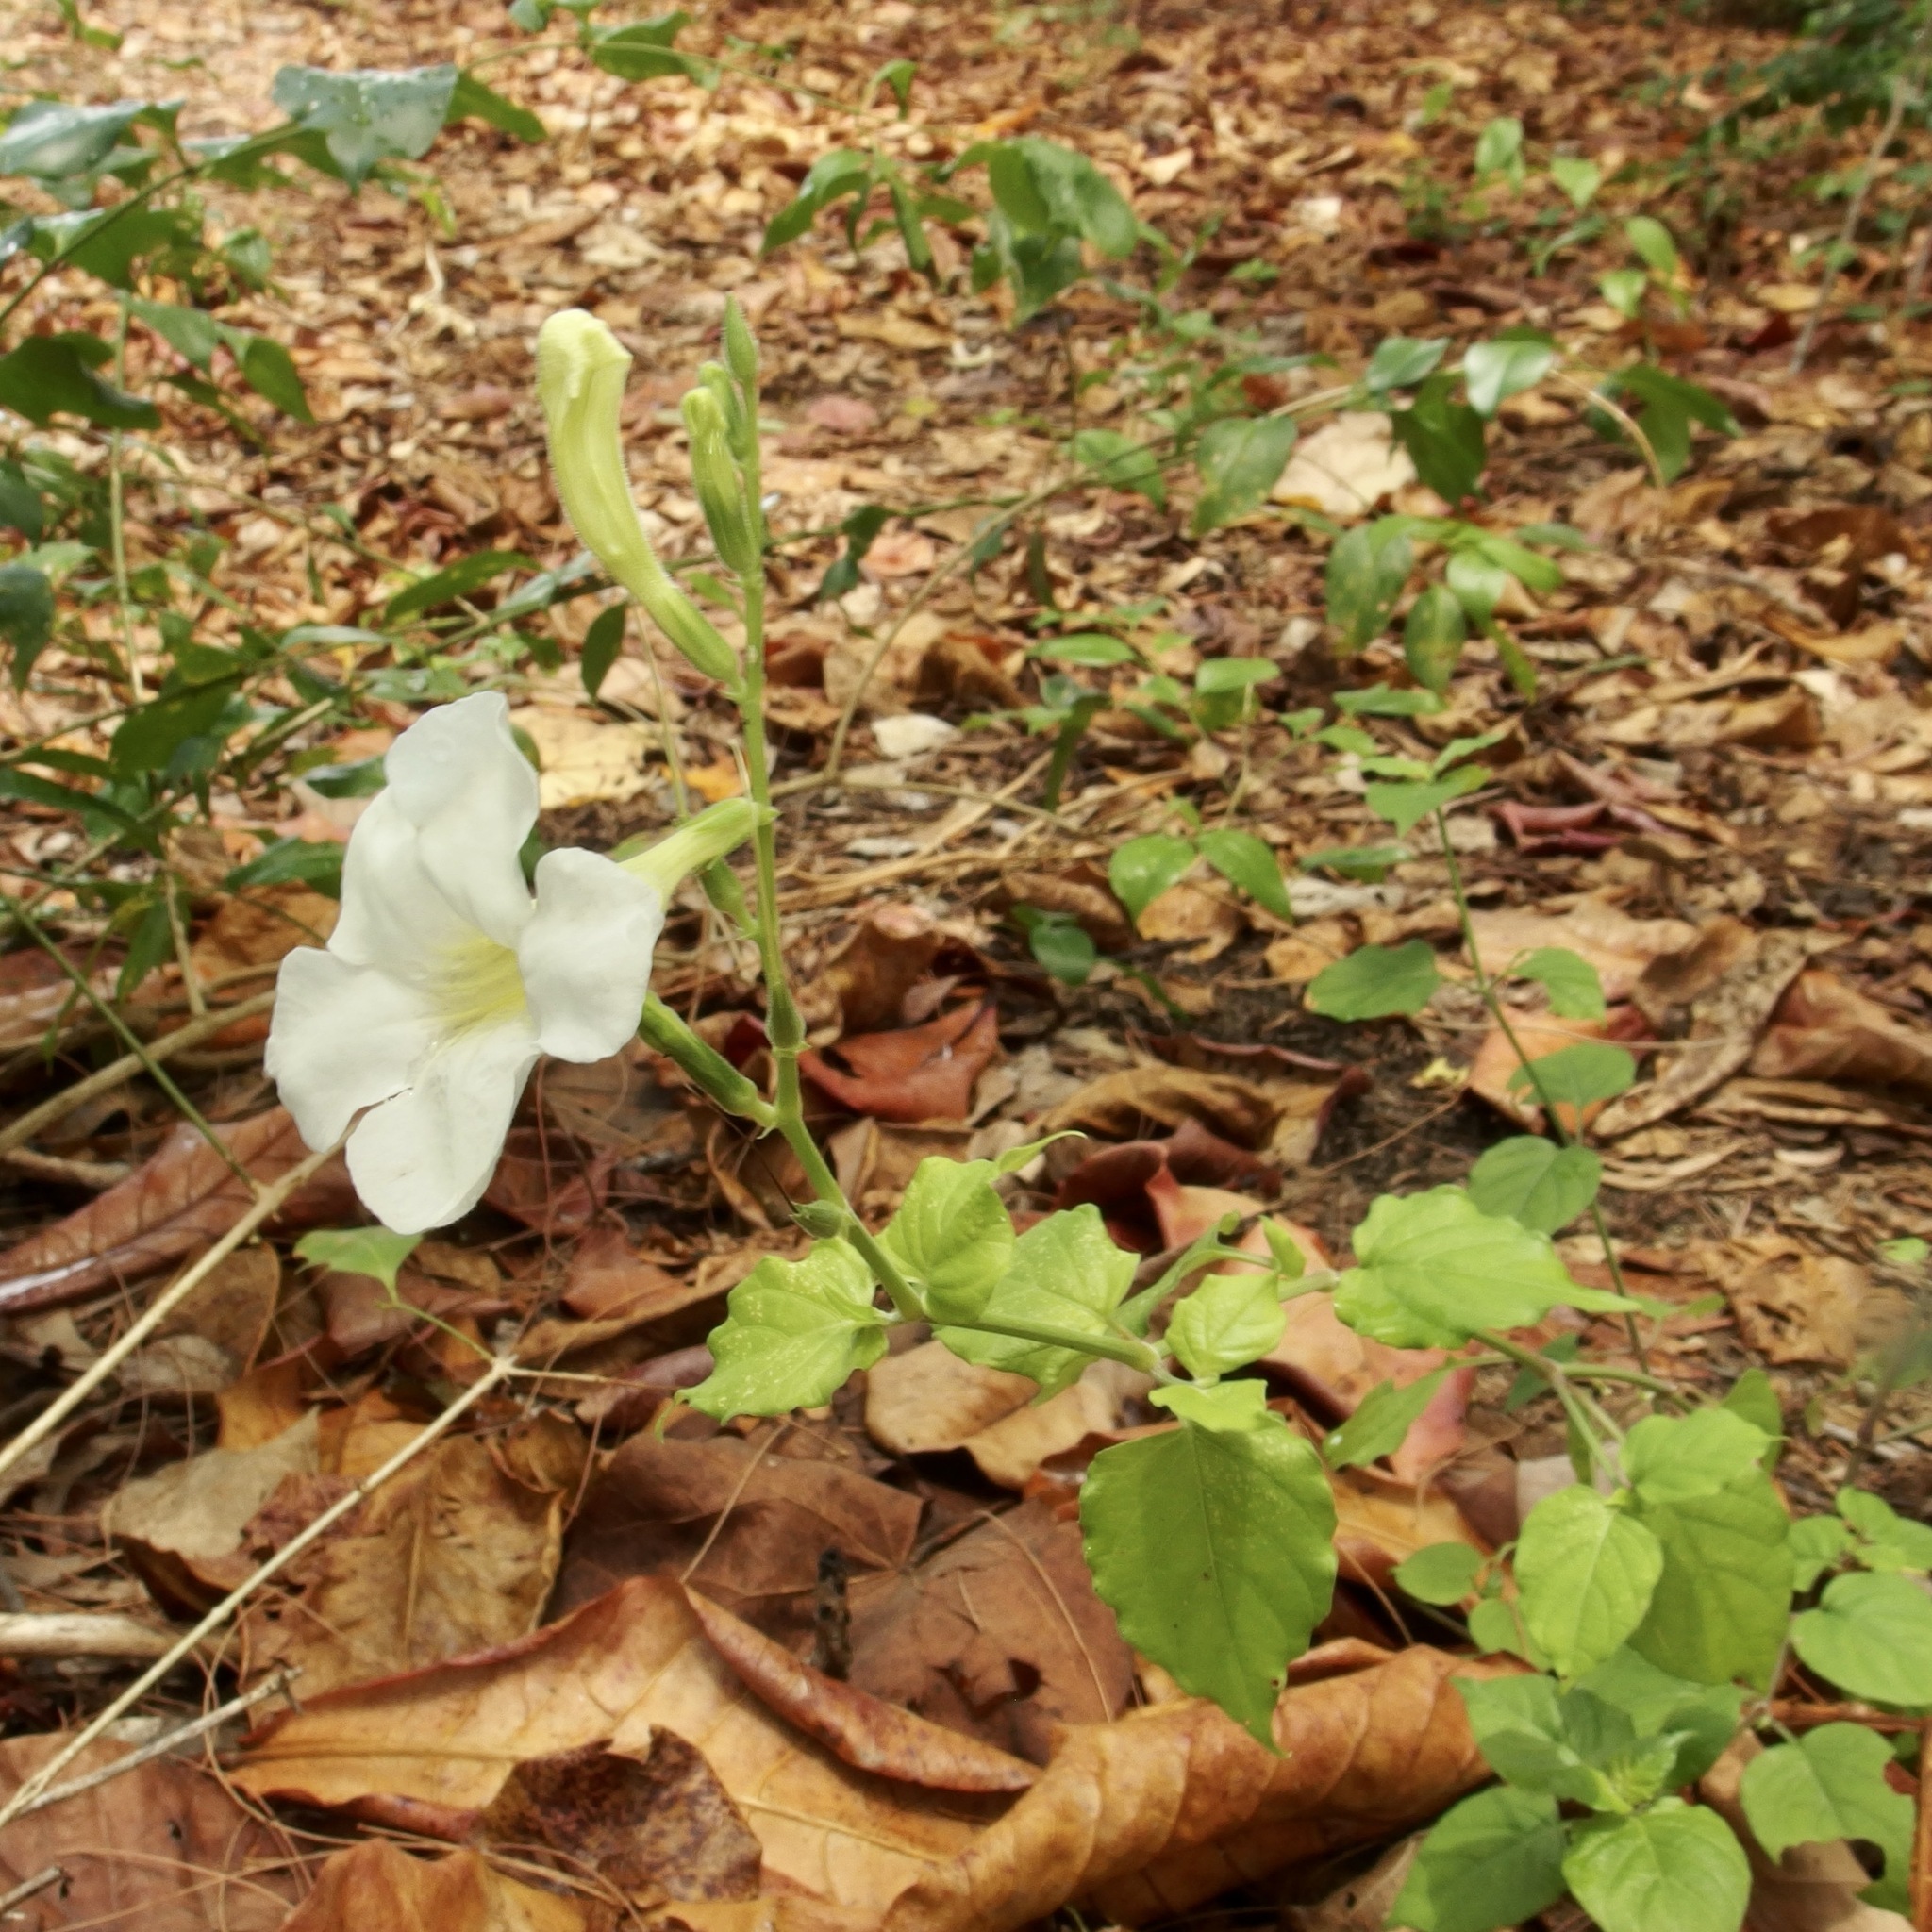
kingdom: Plantae
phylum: Tracheophyta
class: Magnoliopsida
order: Lamiales
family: Acanthaceae
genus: Asystasia
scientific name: Asystasia gangetica
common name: Chinese violet
